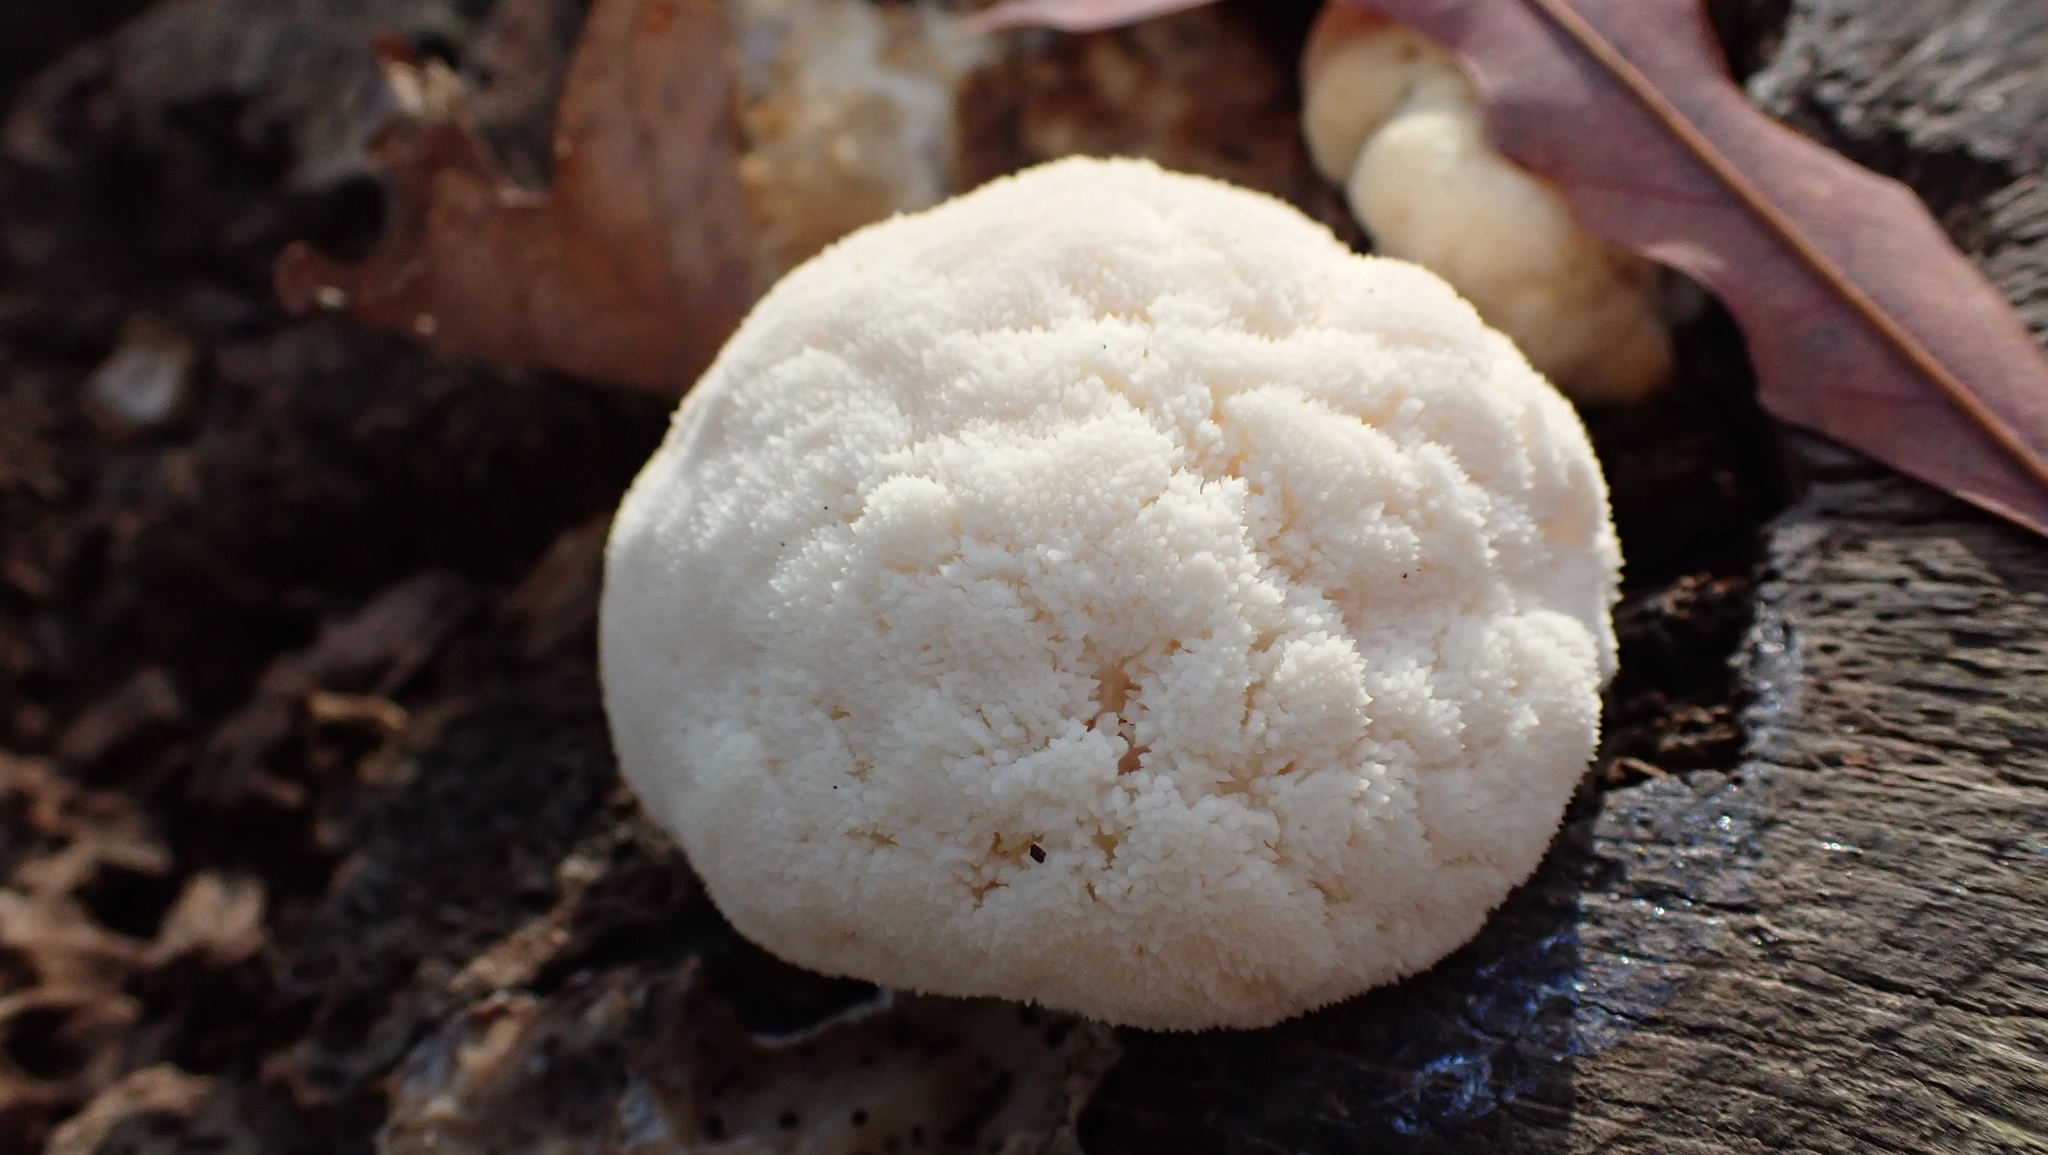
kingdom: Fungi
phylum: Basidiomycota
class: Agaricomycetes
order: Russulales
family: Hericiaceae
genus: Hericium
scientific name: Hericium erinaceus
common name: Bearded tooth
